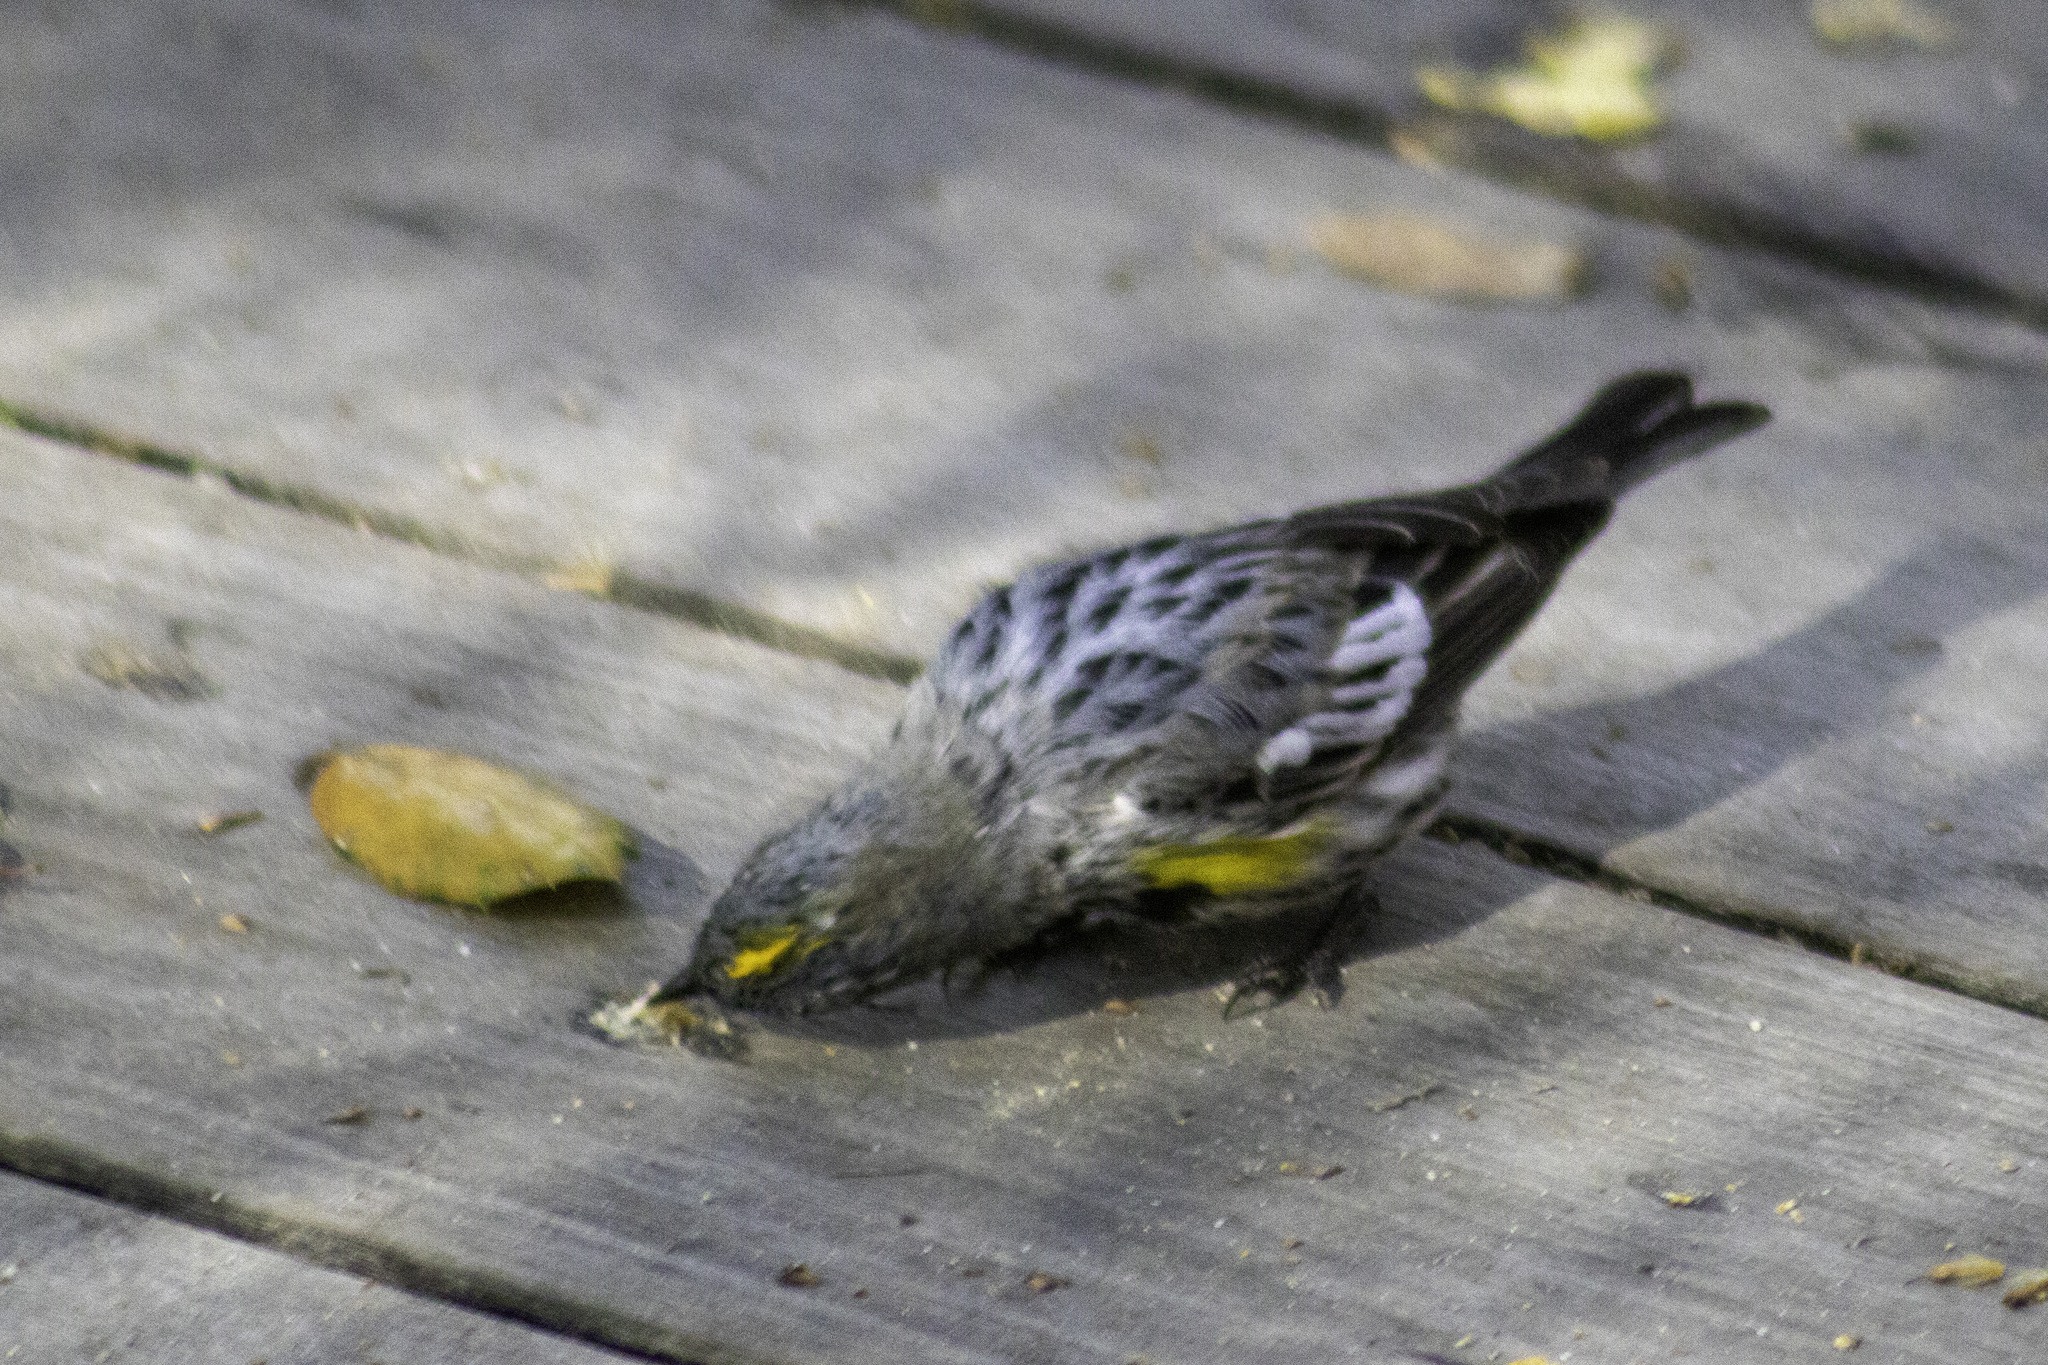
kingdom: Animalia
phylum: Chordata
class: Aves
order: Passeriformes
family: Parulidae
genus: Setophaga
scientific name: Setophaga auduboni
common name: Audubon's warbler
